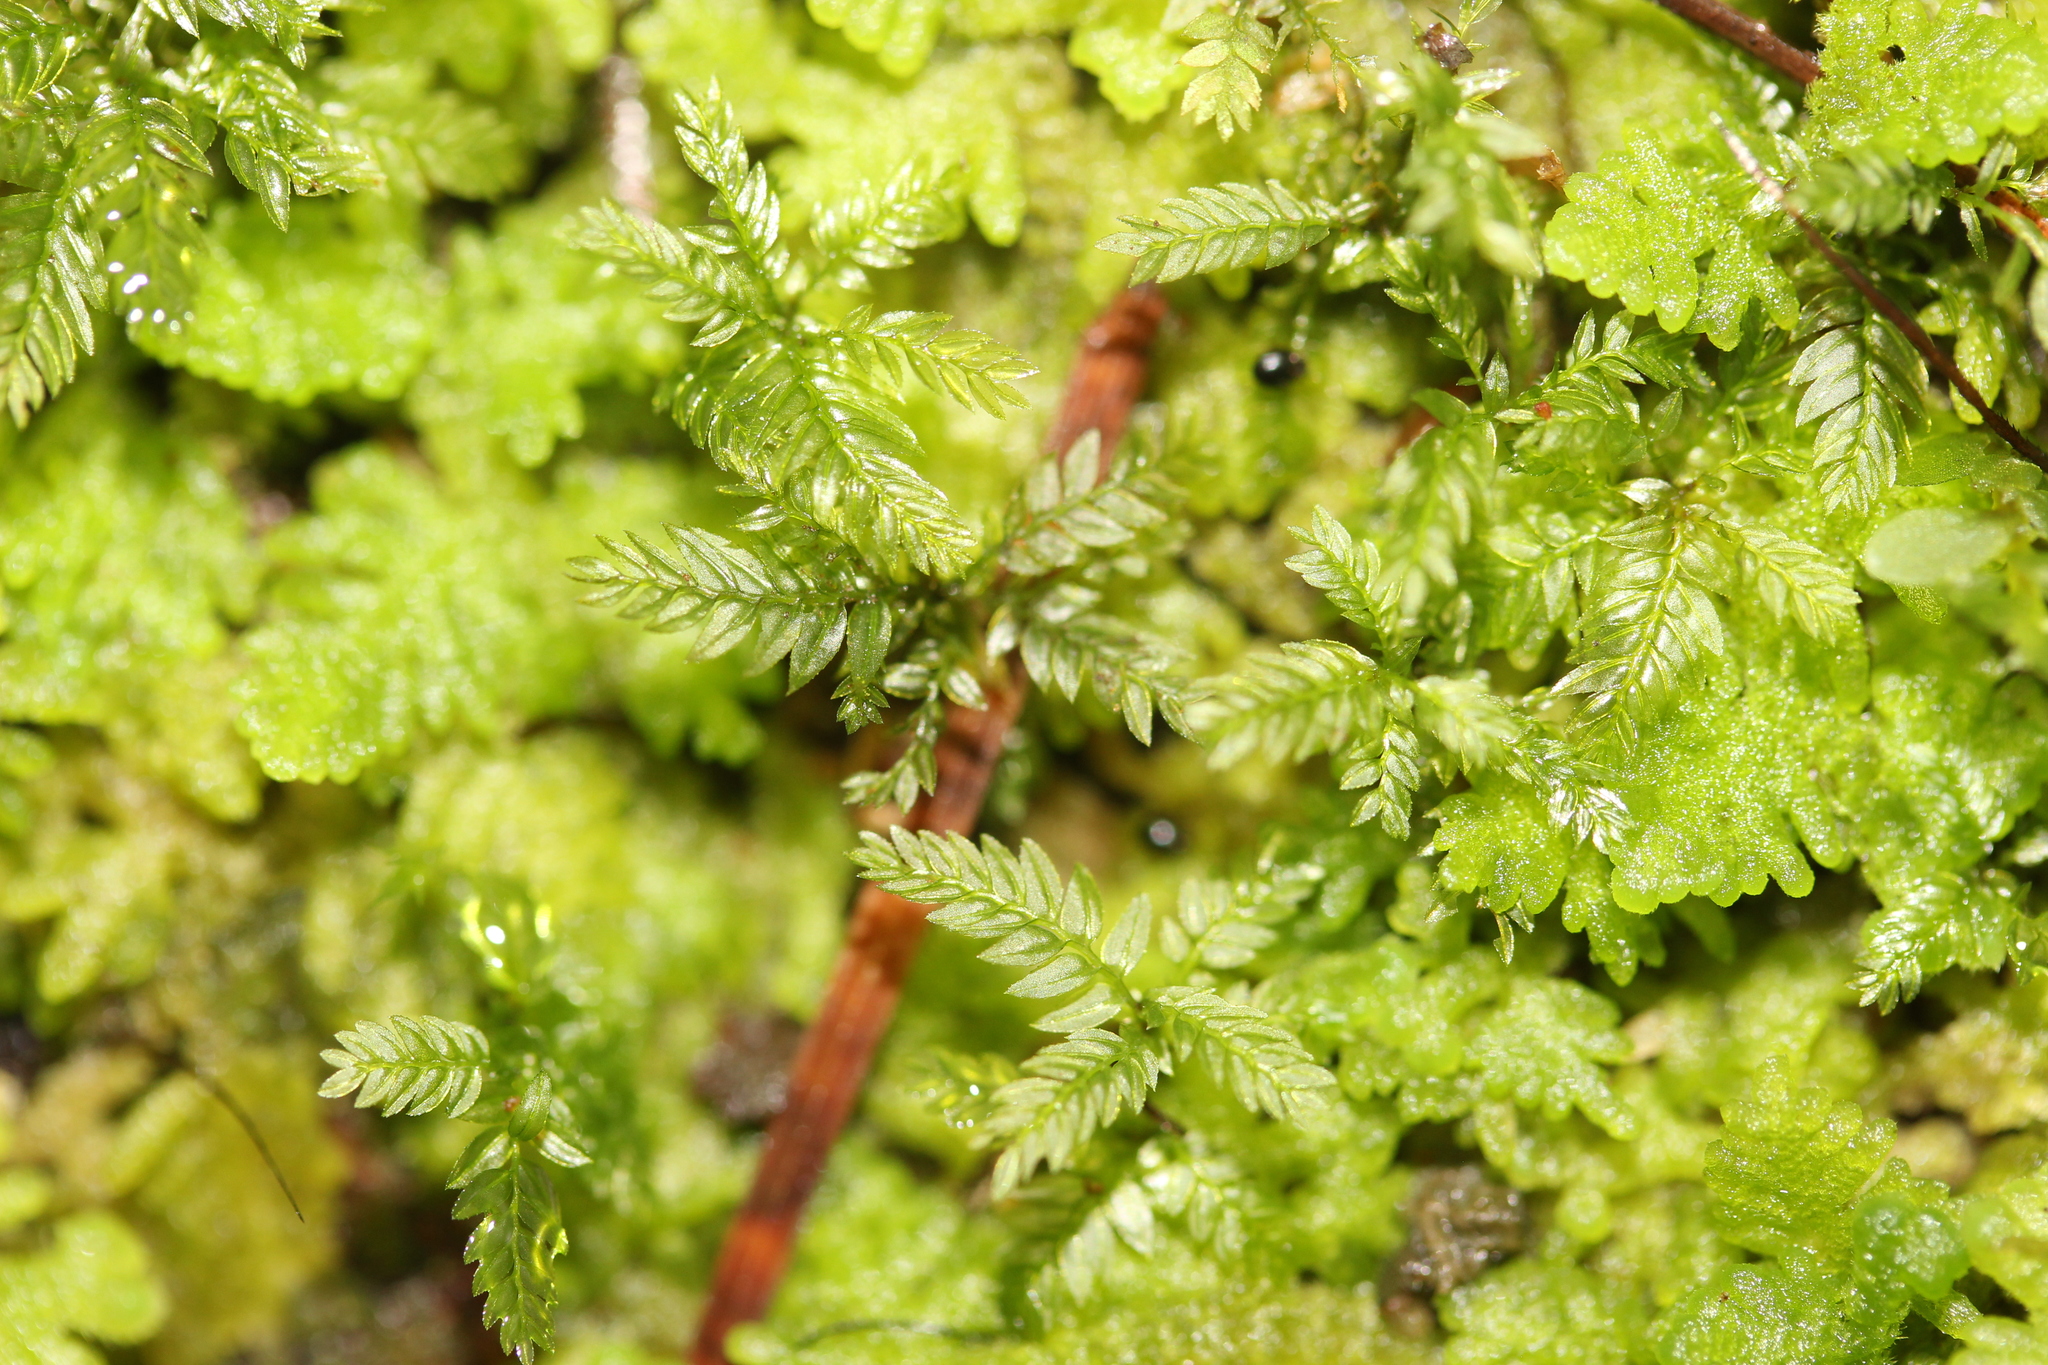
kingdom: Plantae
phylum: Bryophyta
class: Bryopsida
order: Aulacomniales
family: Aulacomniaceae
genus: Hymenodontopsis
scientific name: Hymenodontopsis bifaria
